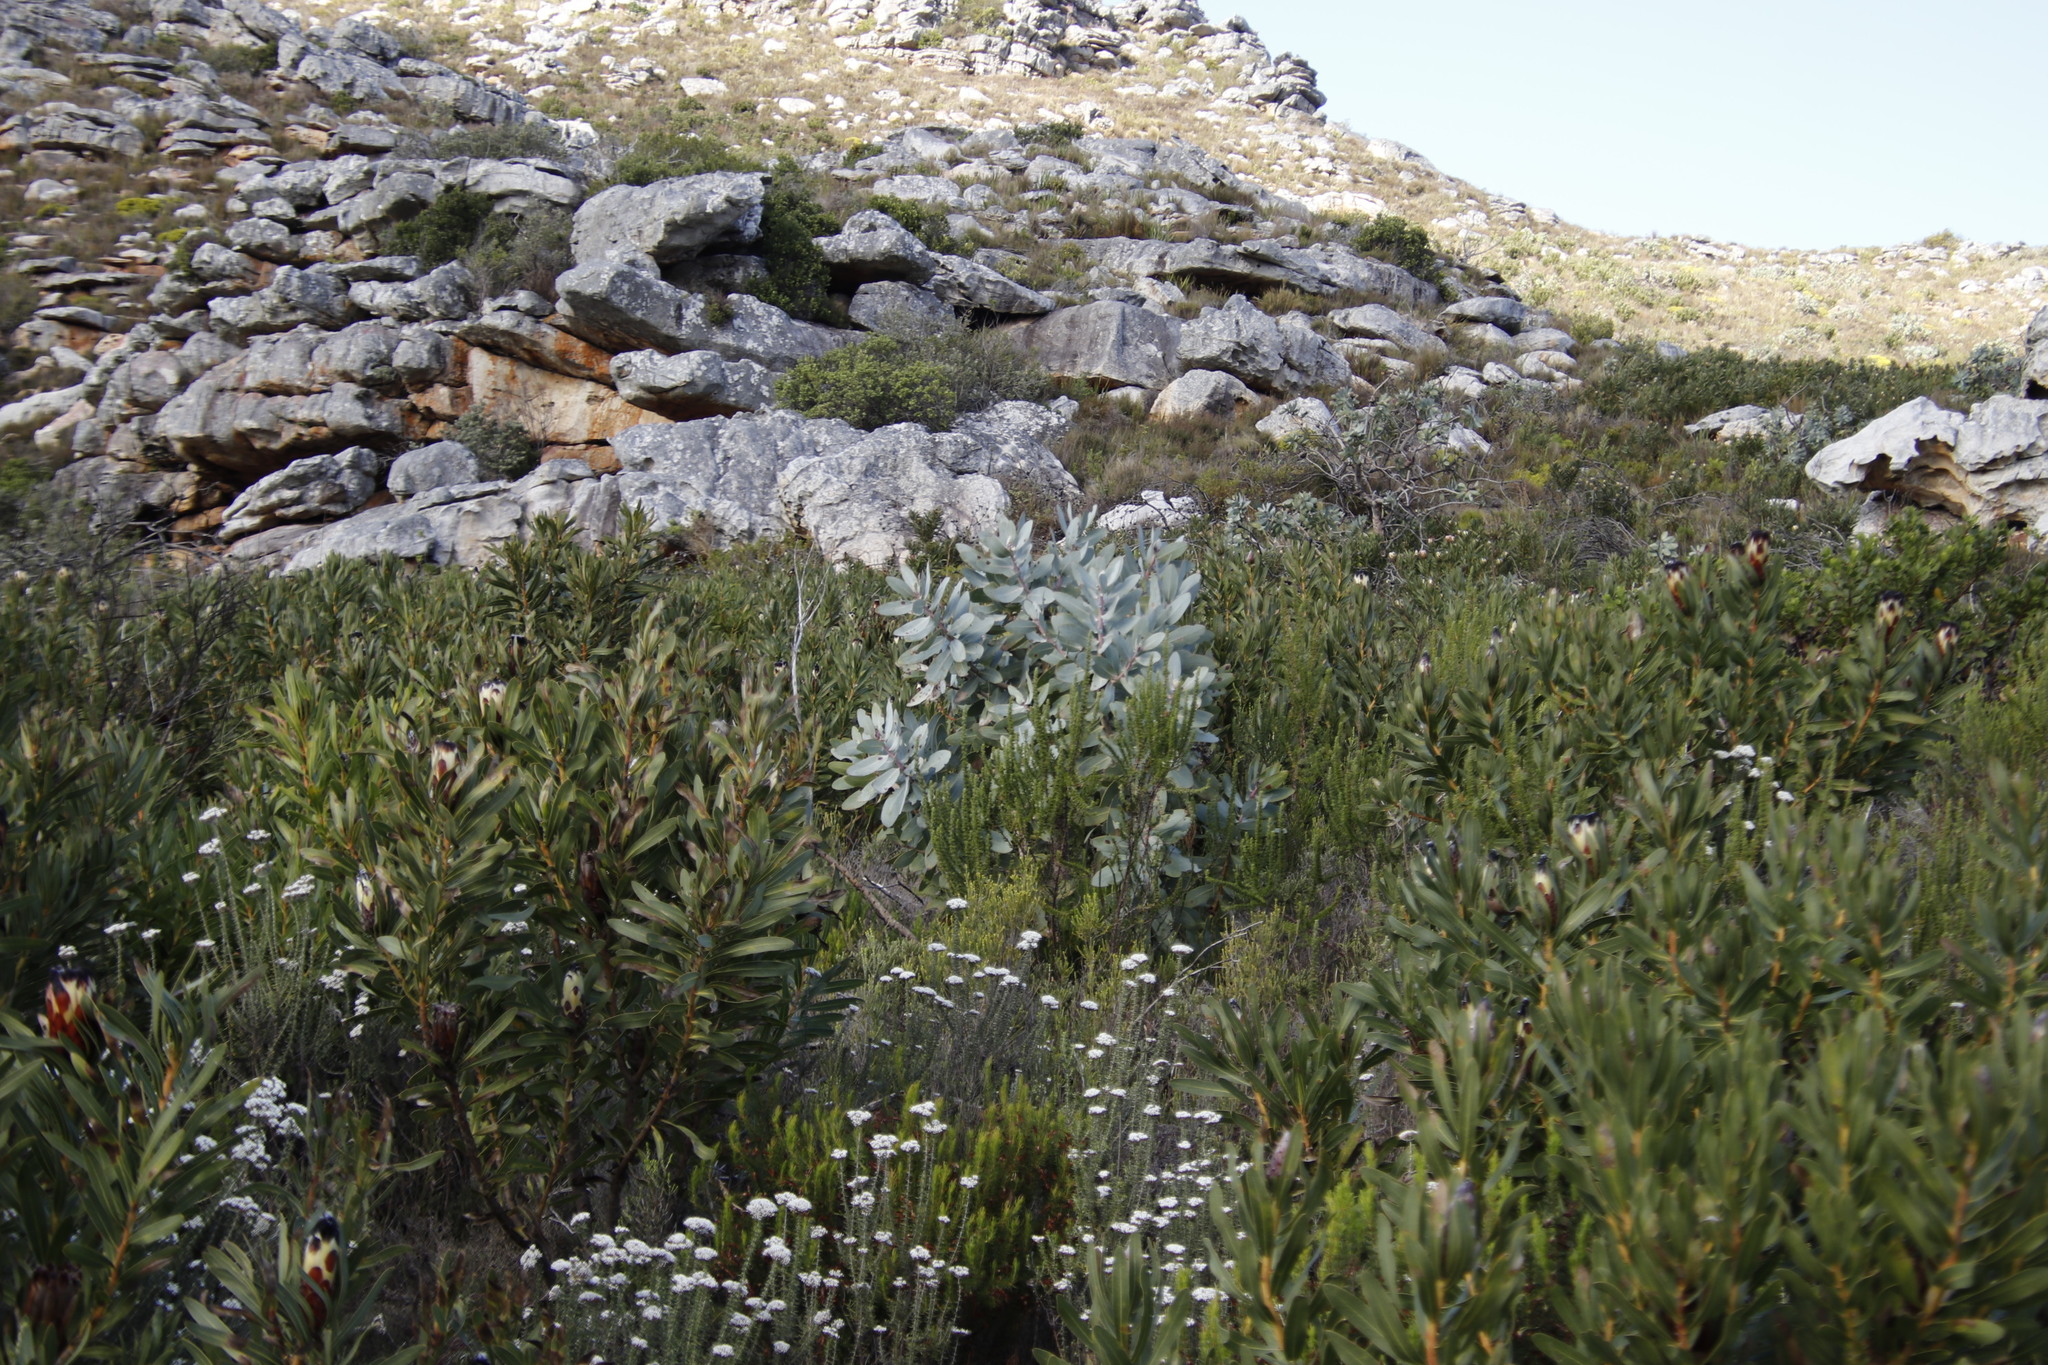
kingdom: Plantae
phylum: Tracheophyta
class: Magnoliopsida
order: Proteales
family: Proteaceae
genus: Protea
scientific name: Protea nitida
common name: Tree protea
